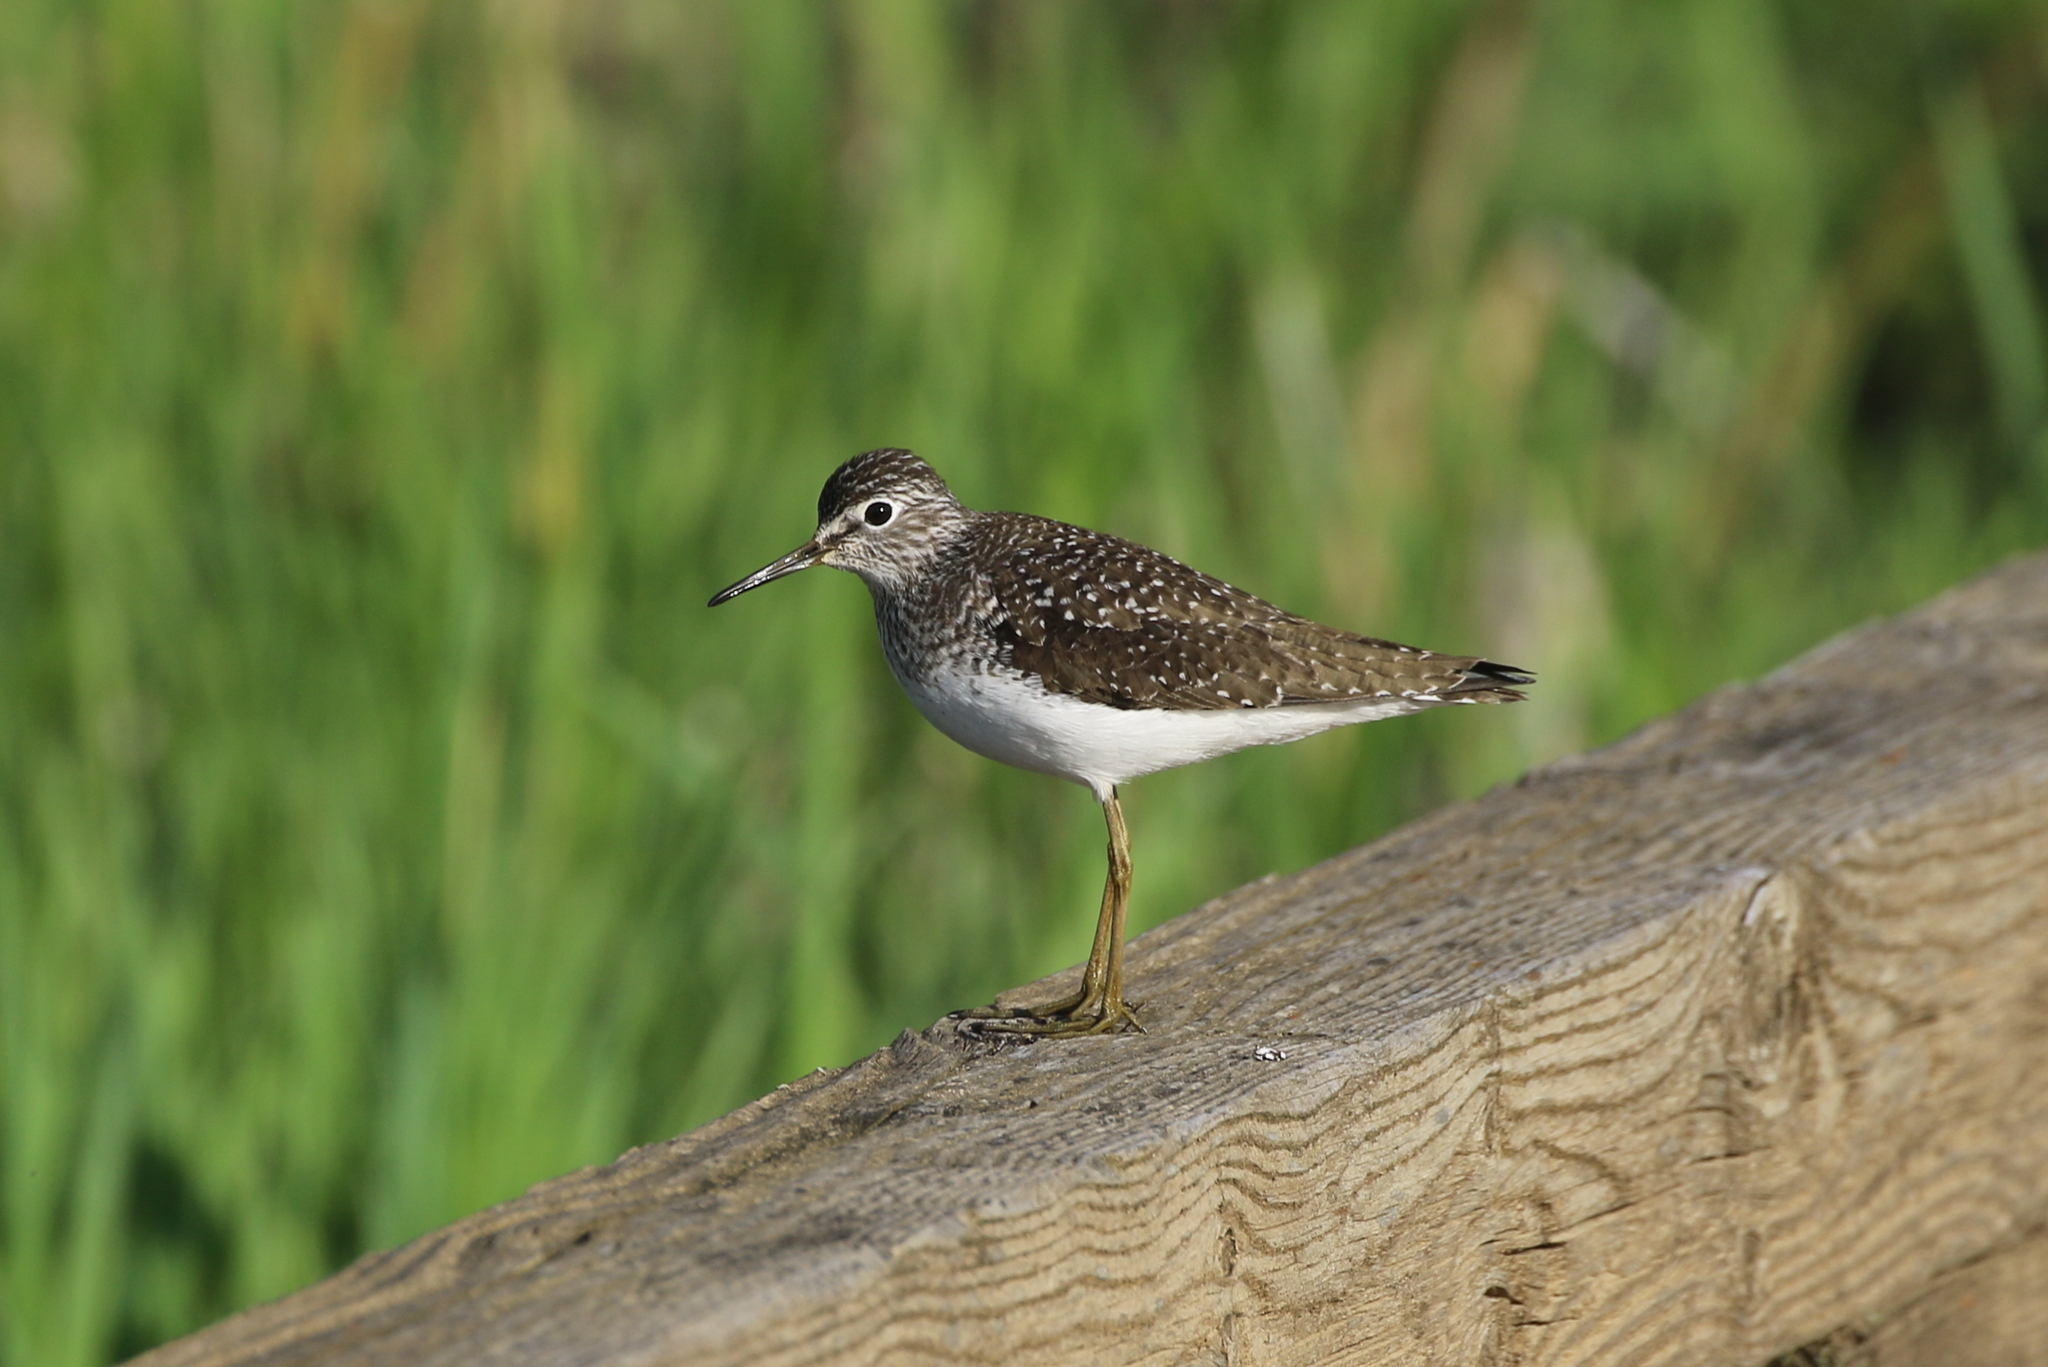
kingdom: Animalia
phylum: Chordata
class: Aves
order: Charadriiformes
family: Scolopacidae
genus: Tringa
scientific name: Tringa solitaria
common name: Solitary sandpiper
